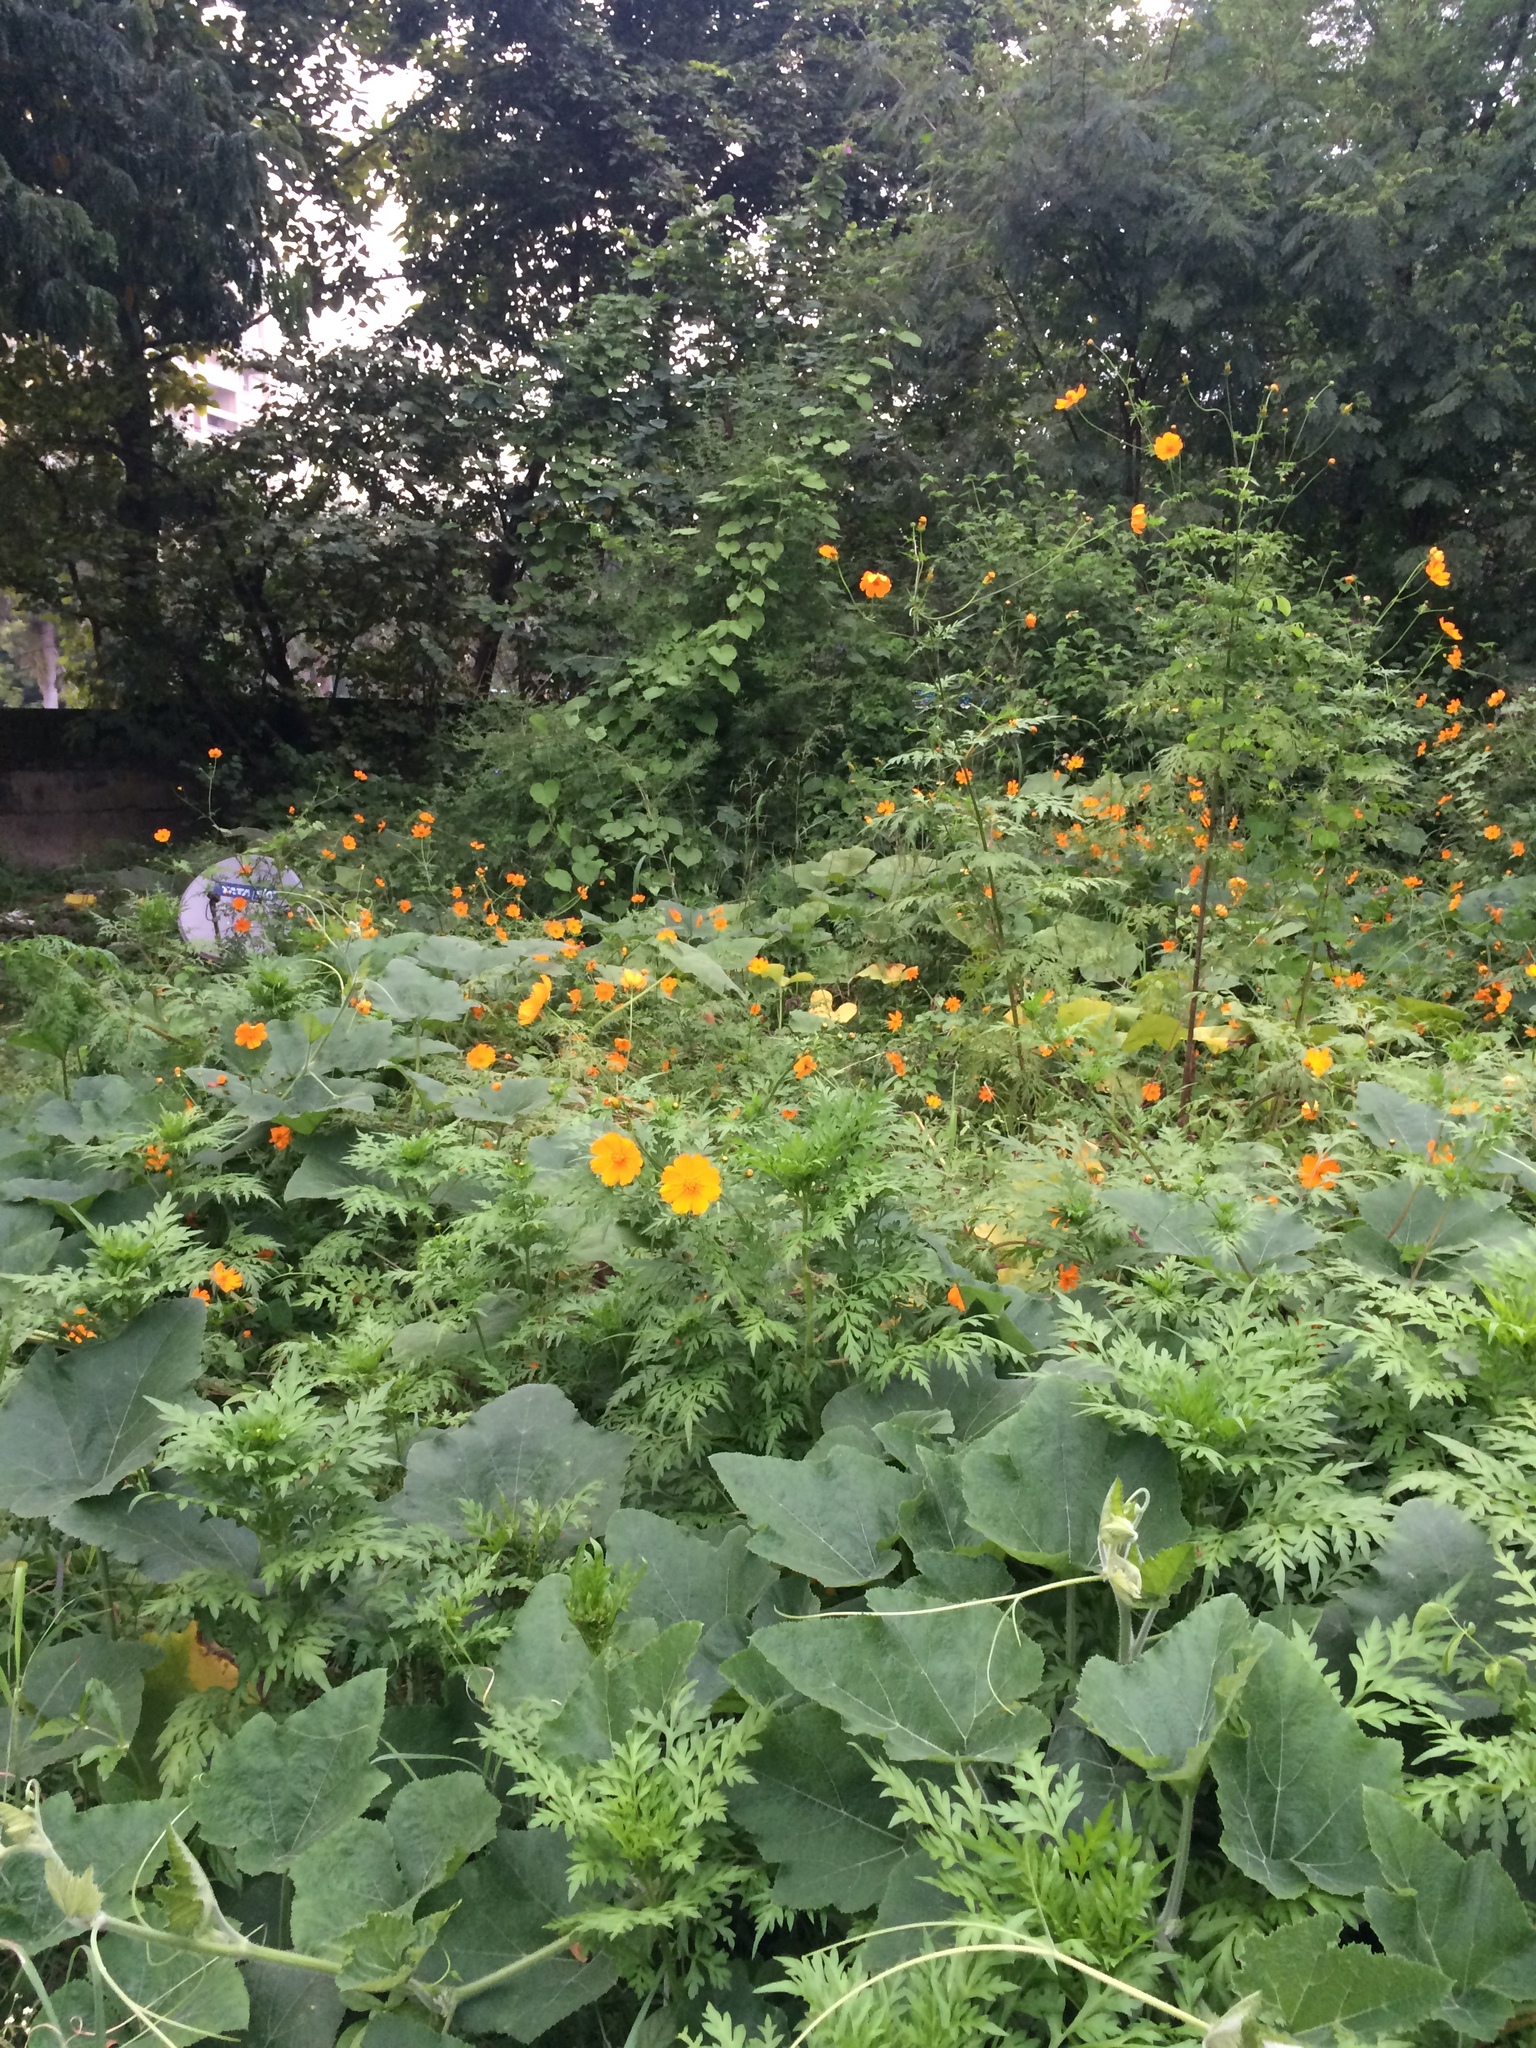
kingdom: Plantae
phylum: Tracheophyta
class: Magnoliopsida
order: Asterales
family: Asteraceae
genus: Cosmos
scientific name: Cosmos sulphureus
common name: Sulphur cosmos
